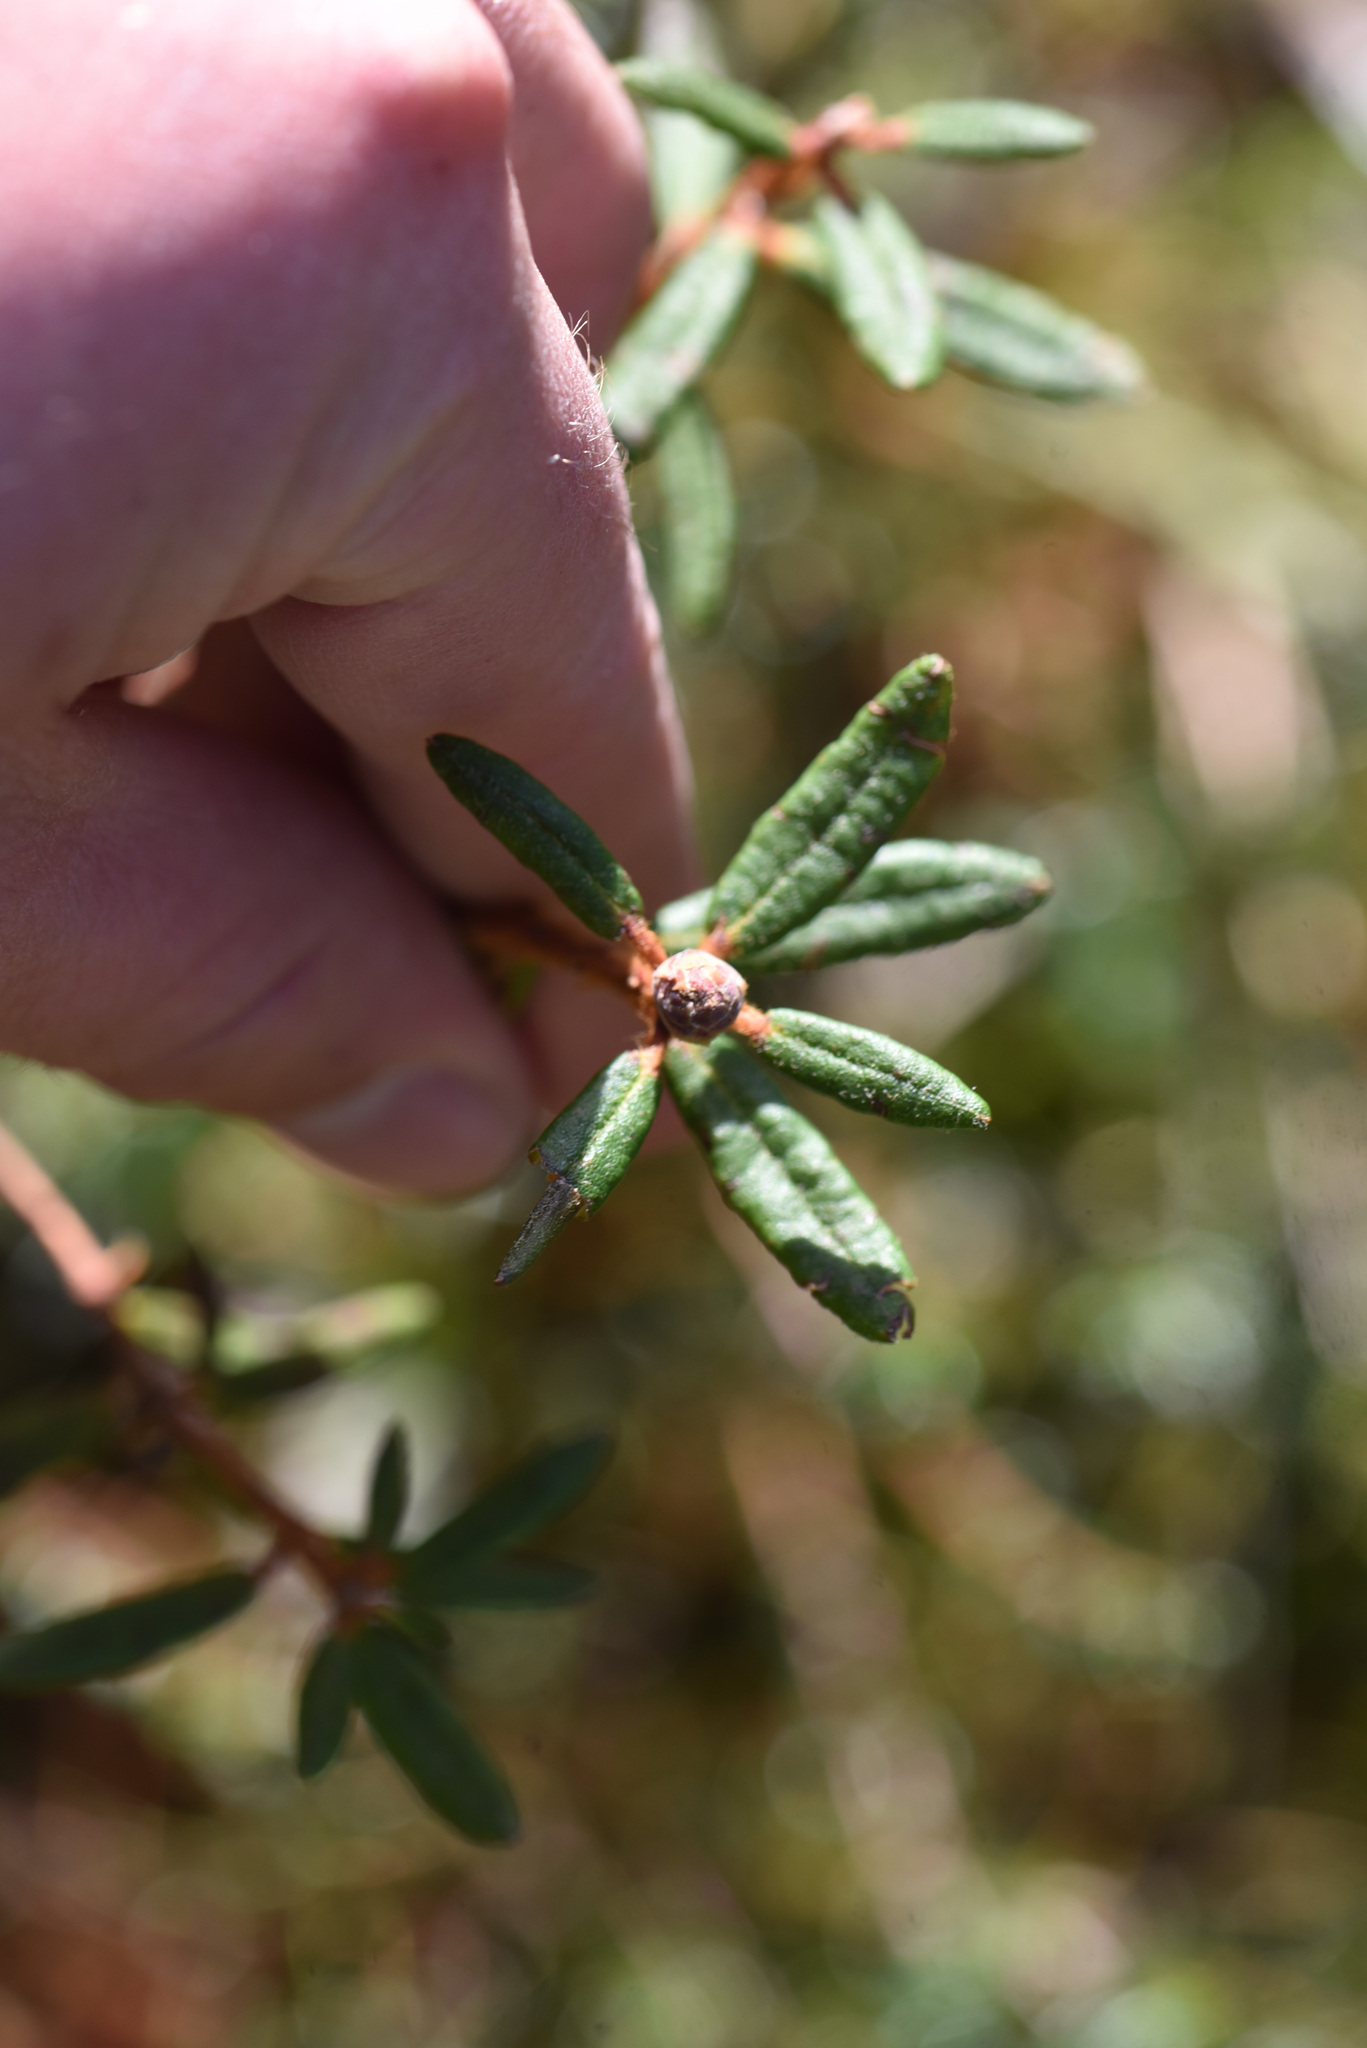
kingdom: Plantae
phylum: Tracheophyta
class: Magnoliopsida
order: Ericales
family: Ericaceae
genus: Rhododendron
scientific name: Rhododendron groenlandicum
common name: Bog labrador tea
